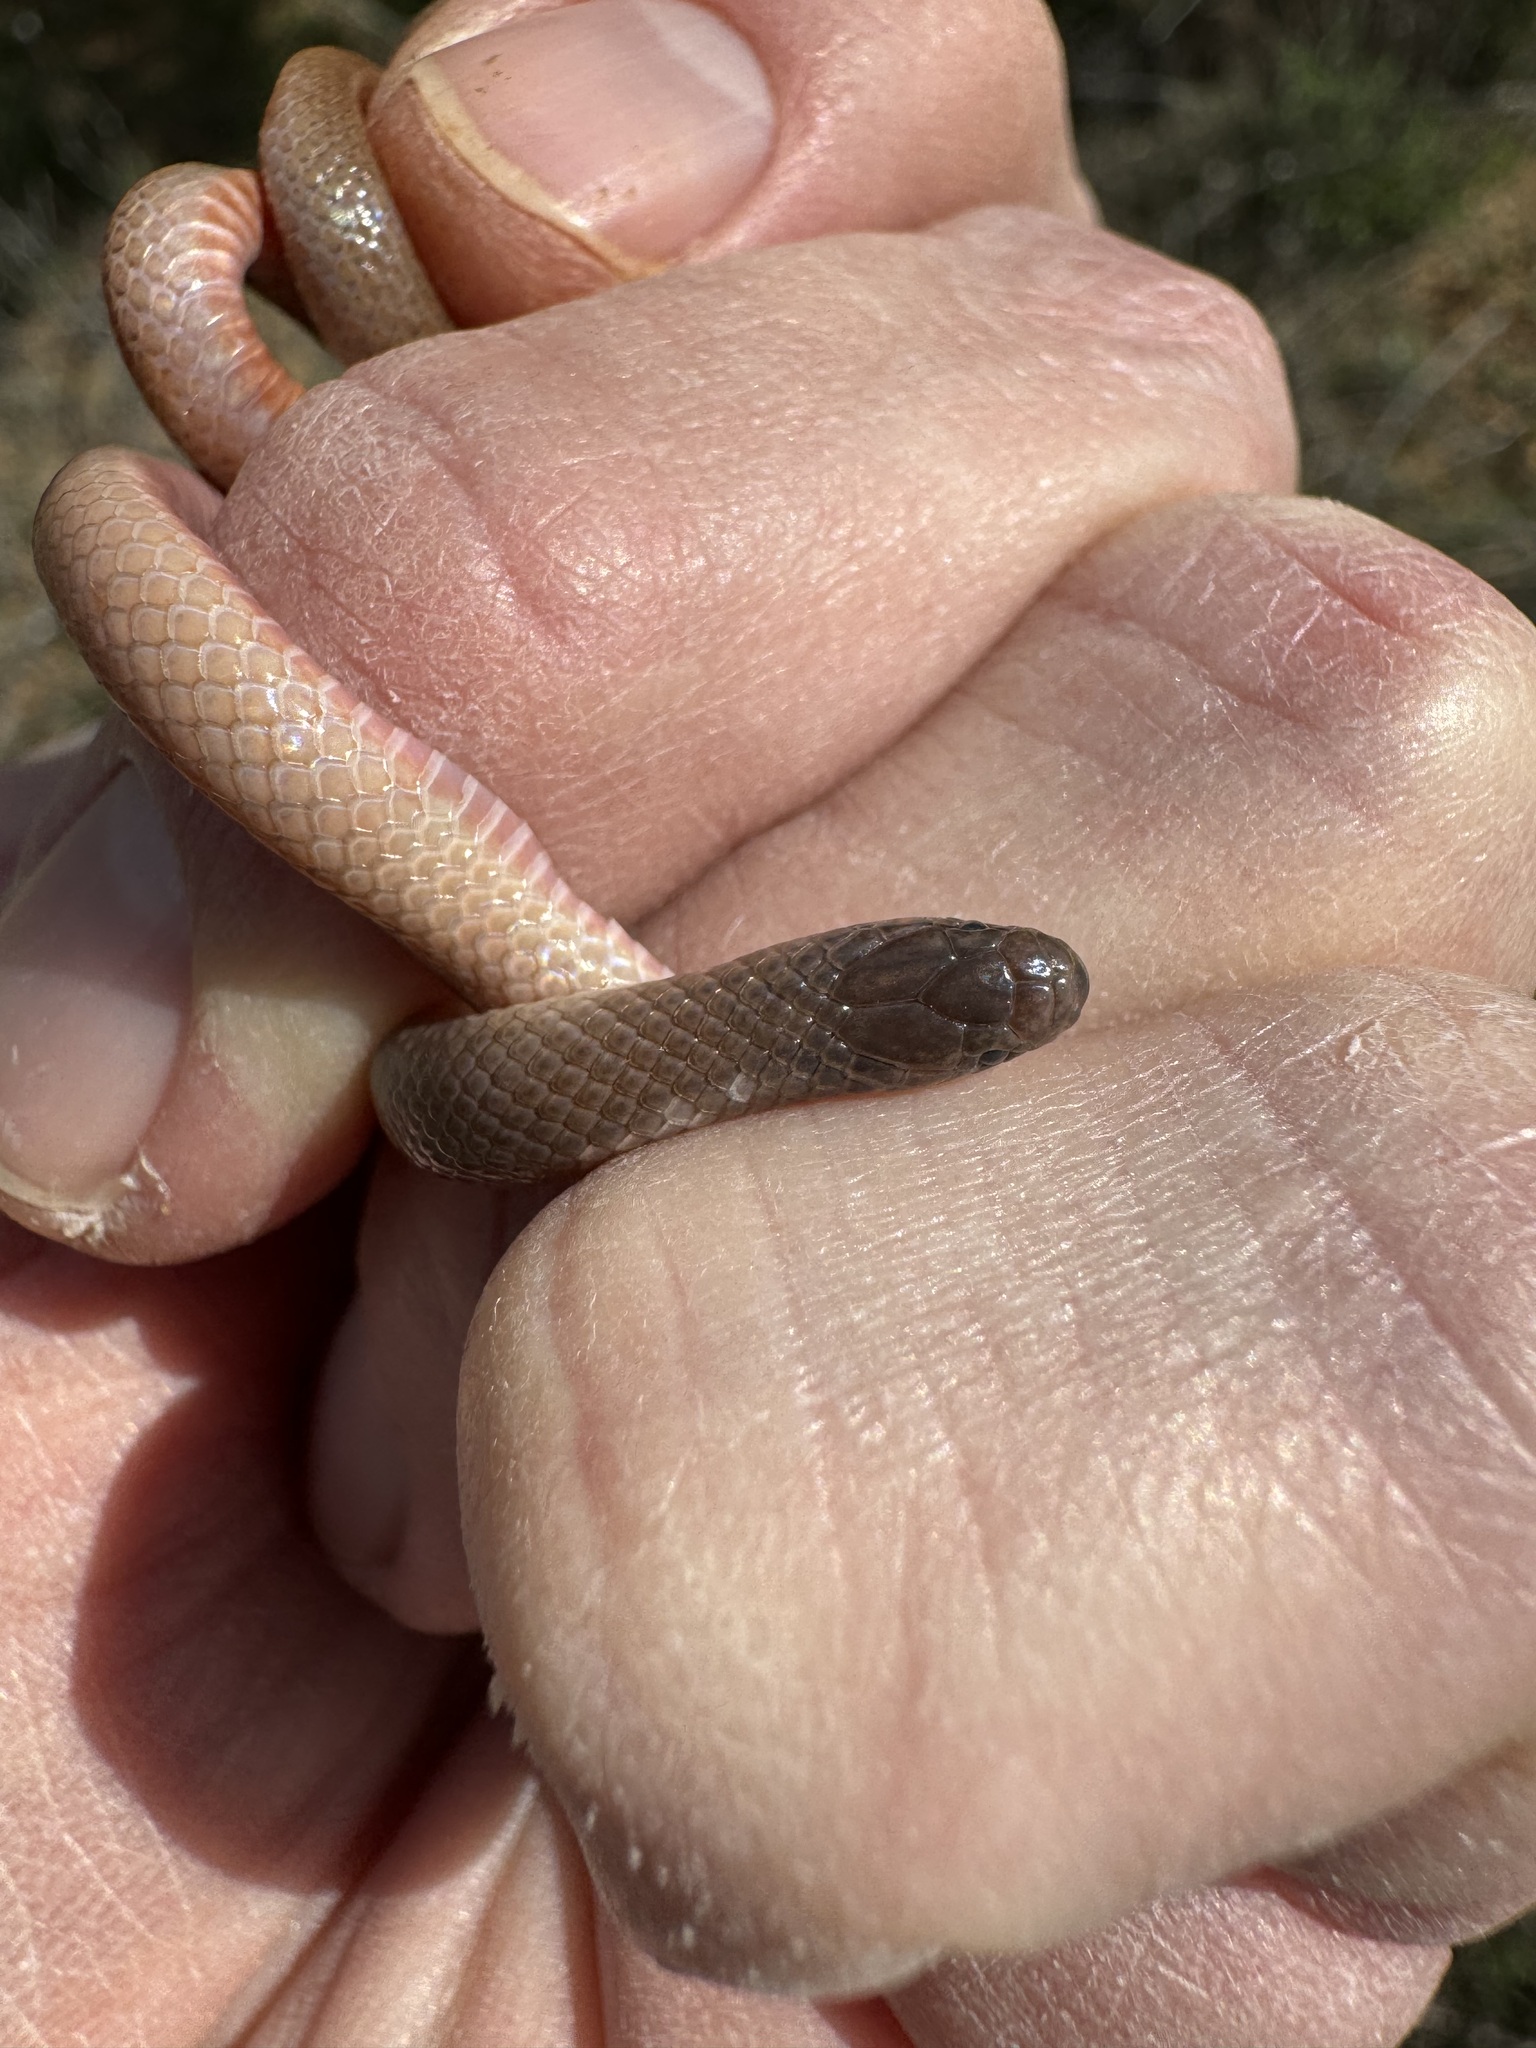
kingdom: Animalia
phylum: Chordata
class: Squamata
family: Colubridae
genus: Tantilla
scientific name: Tantilla gracilis
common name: Flathead snake
